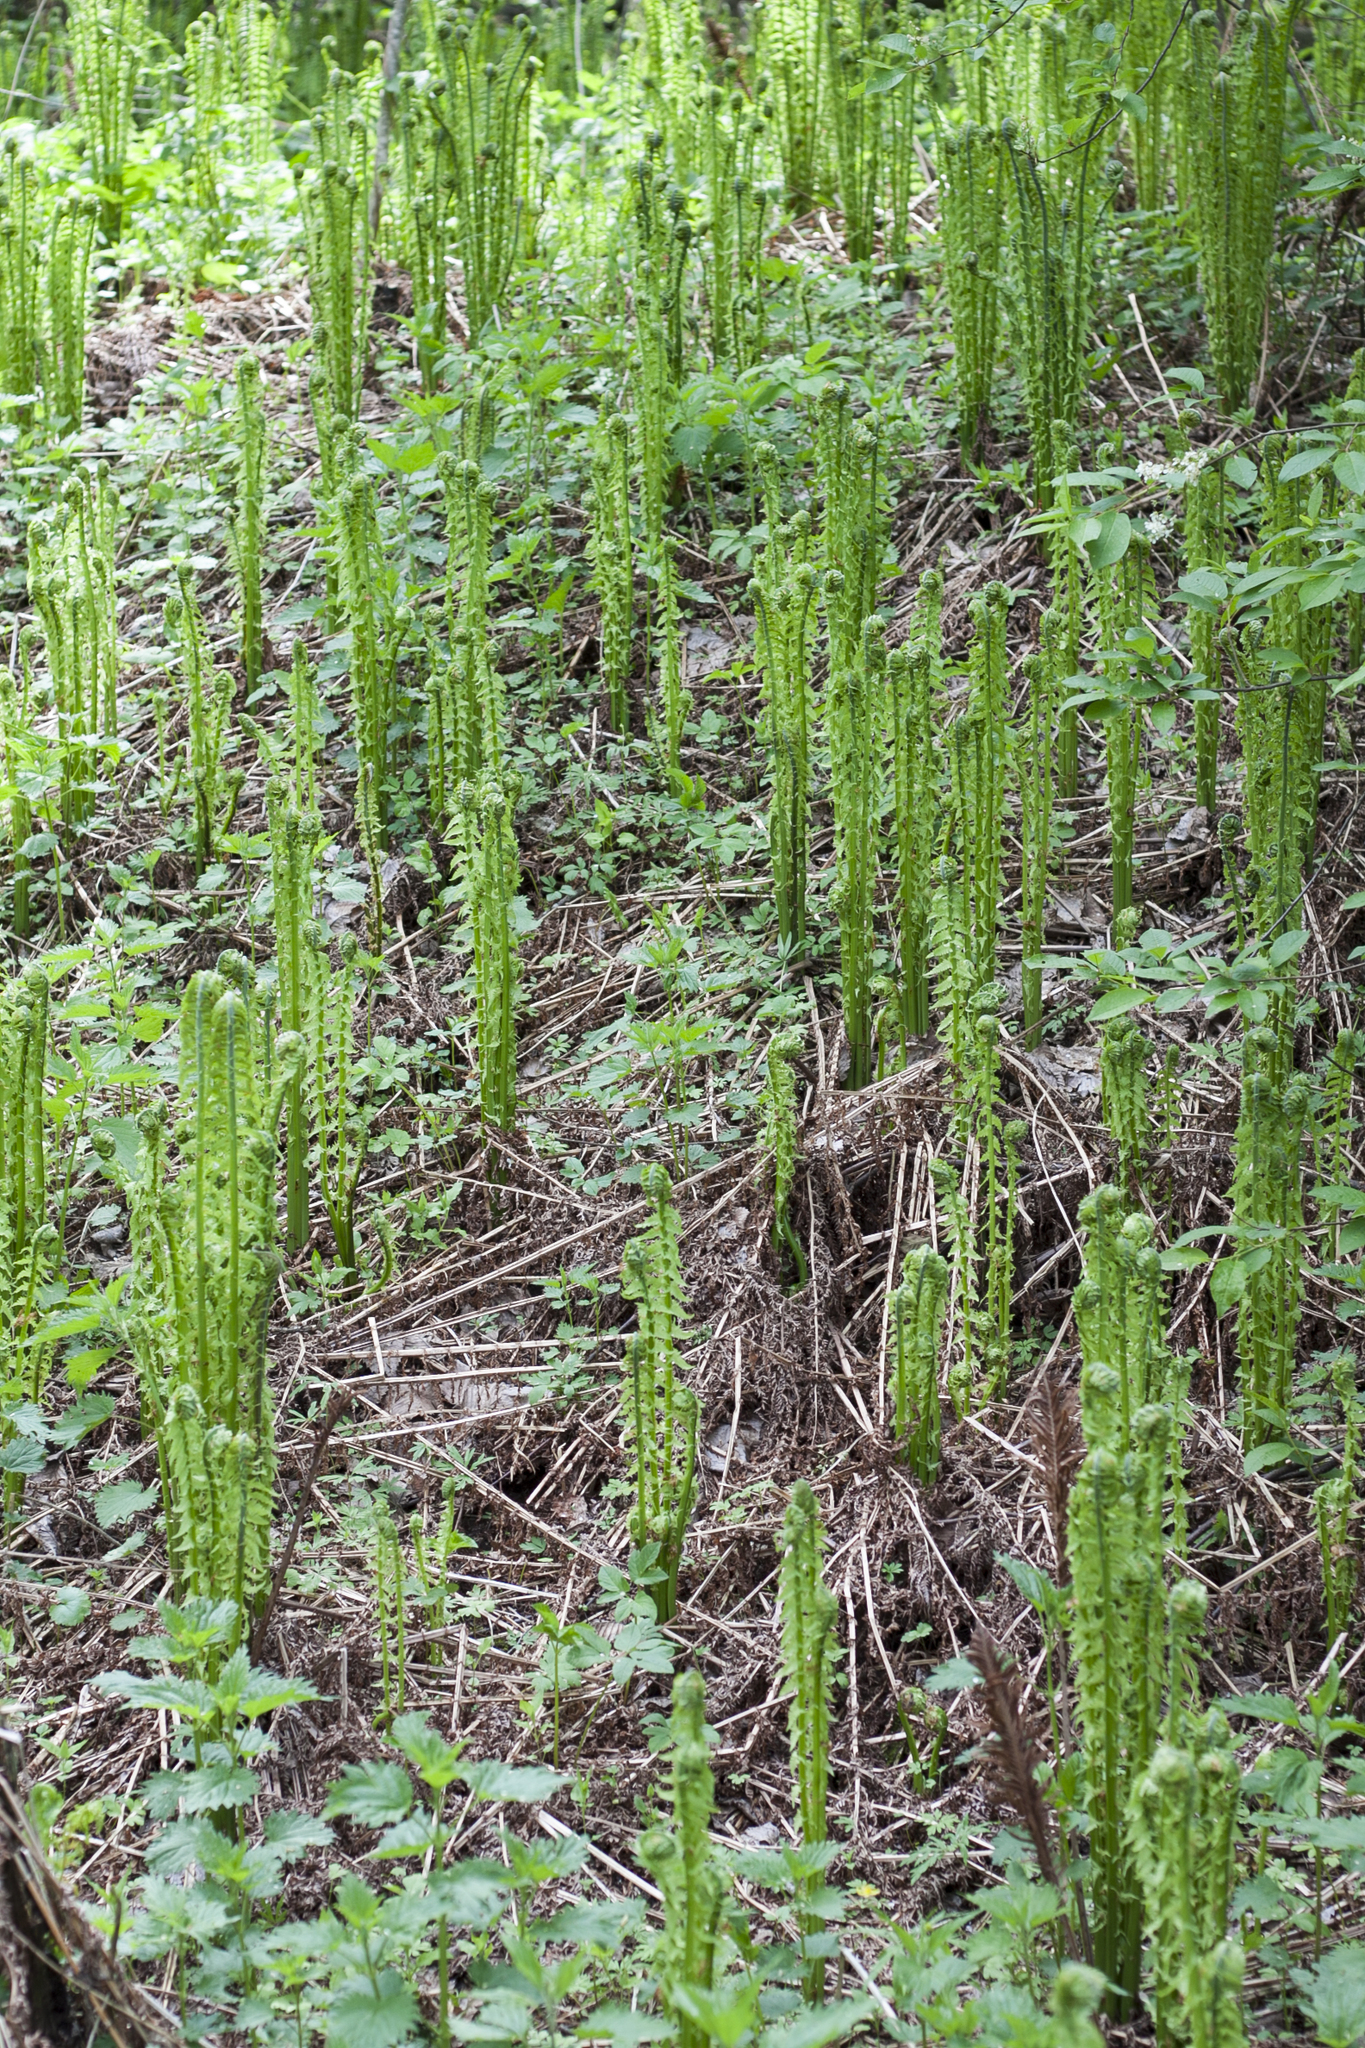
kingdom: Plantae
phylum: Tracheophyta
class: Polypodiopsida
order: Polypodiales
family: Onocleaceae
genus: Matteuccia
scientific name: Matteuccia struthiopteris
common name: Ostrich fern
